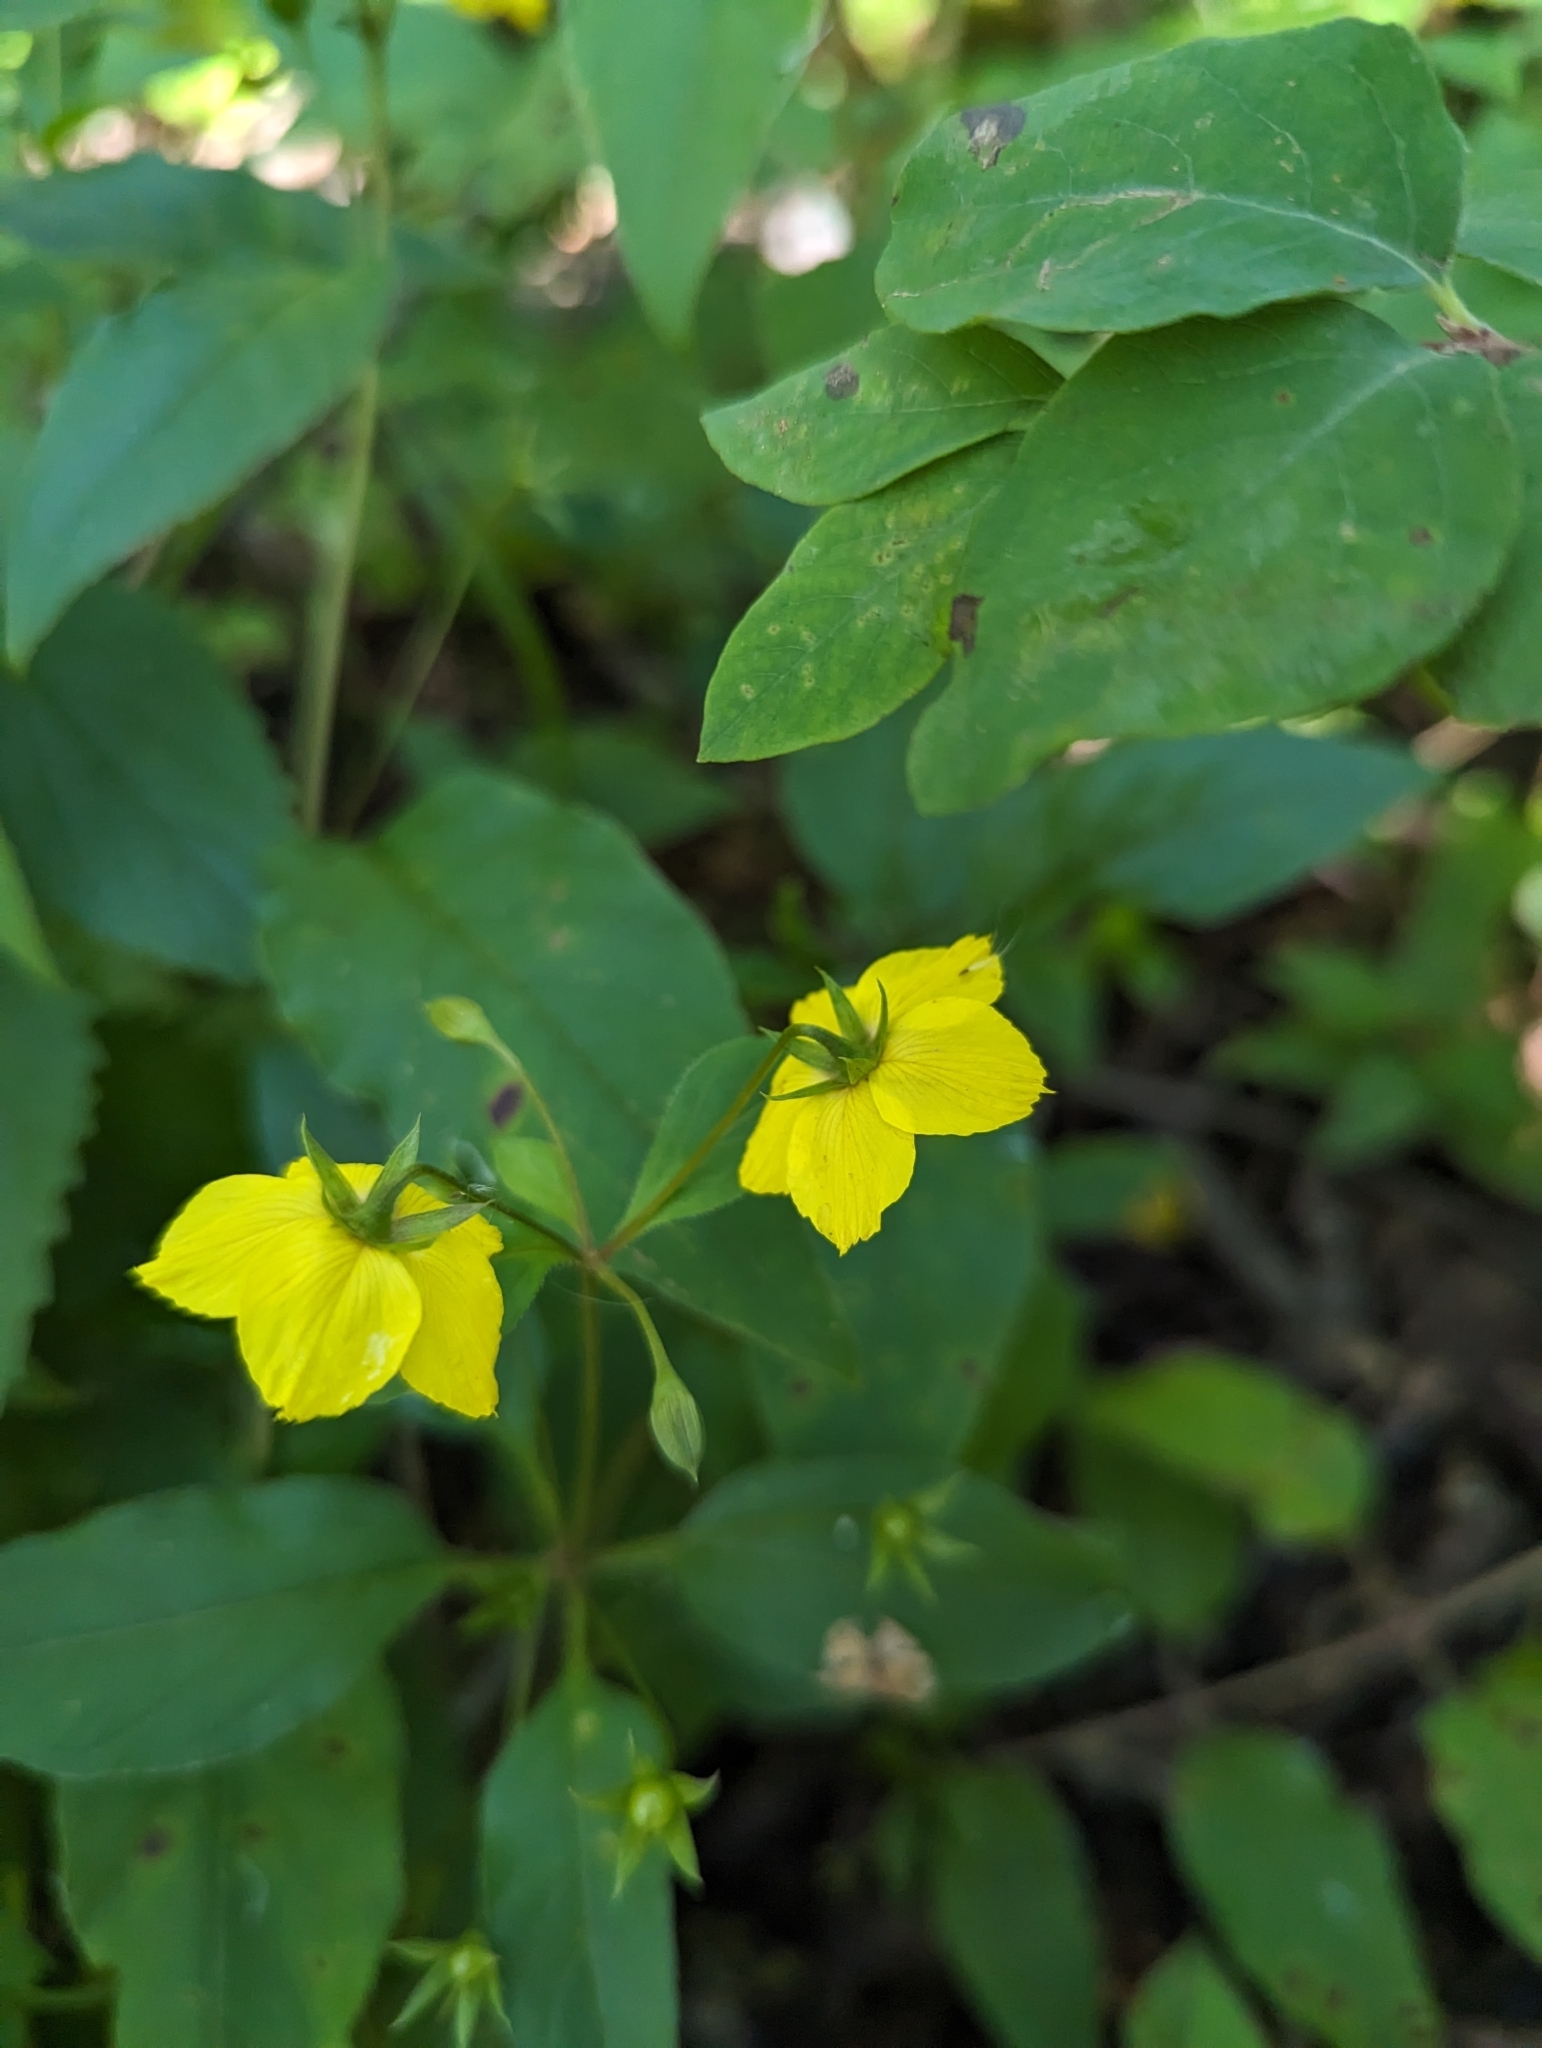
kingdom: Plantae
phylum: Tracheophyta
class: Magnoliopsida
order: Ericales
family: Primulaceae
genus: Lysimachia
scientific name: Lysimachia ciliata
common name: Fringed loosestrife
